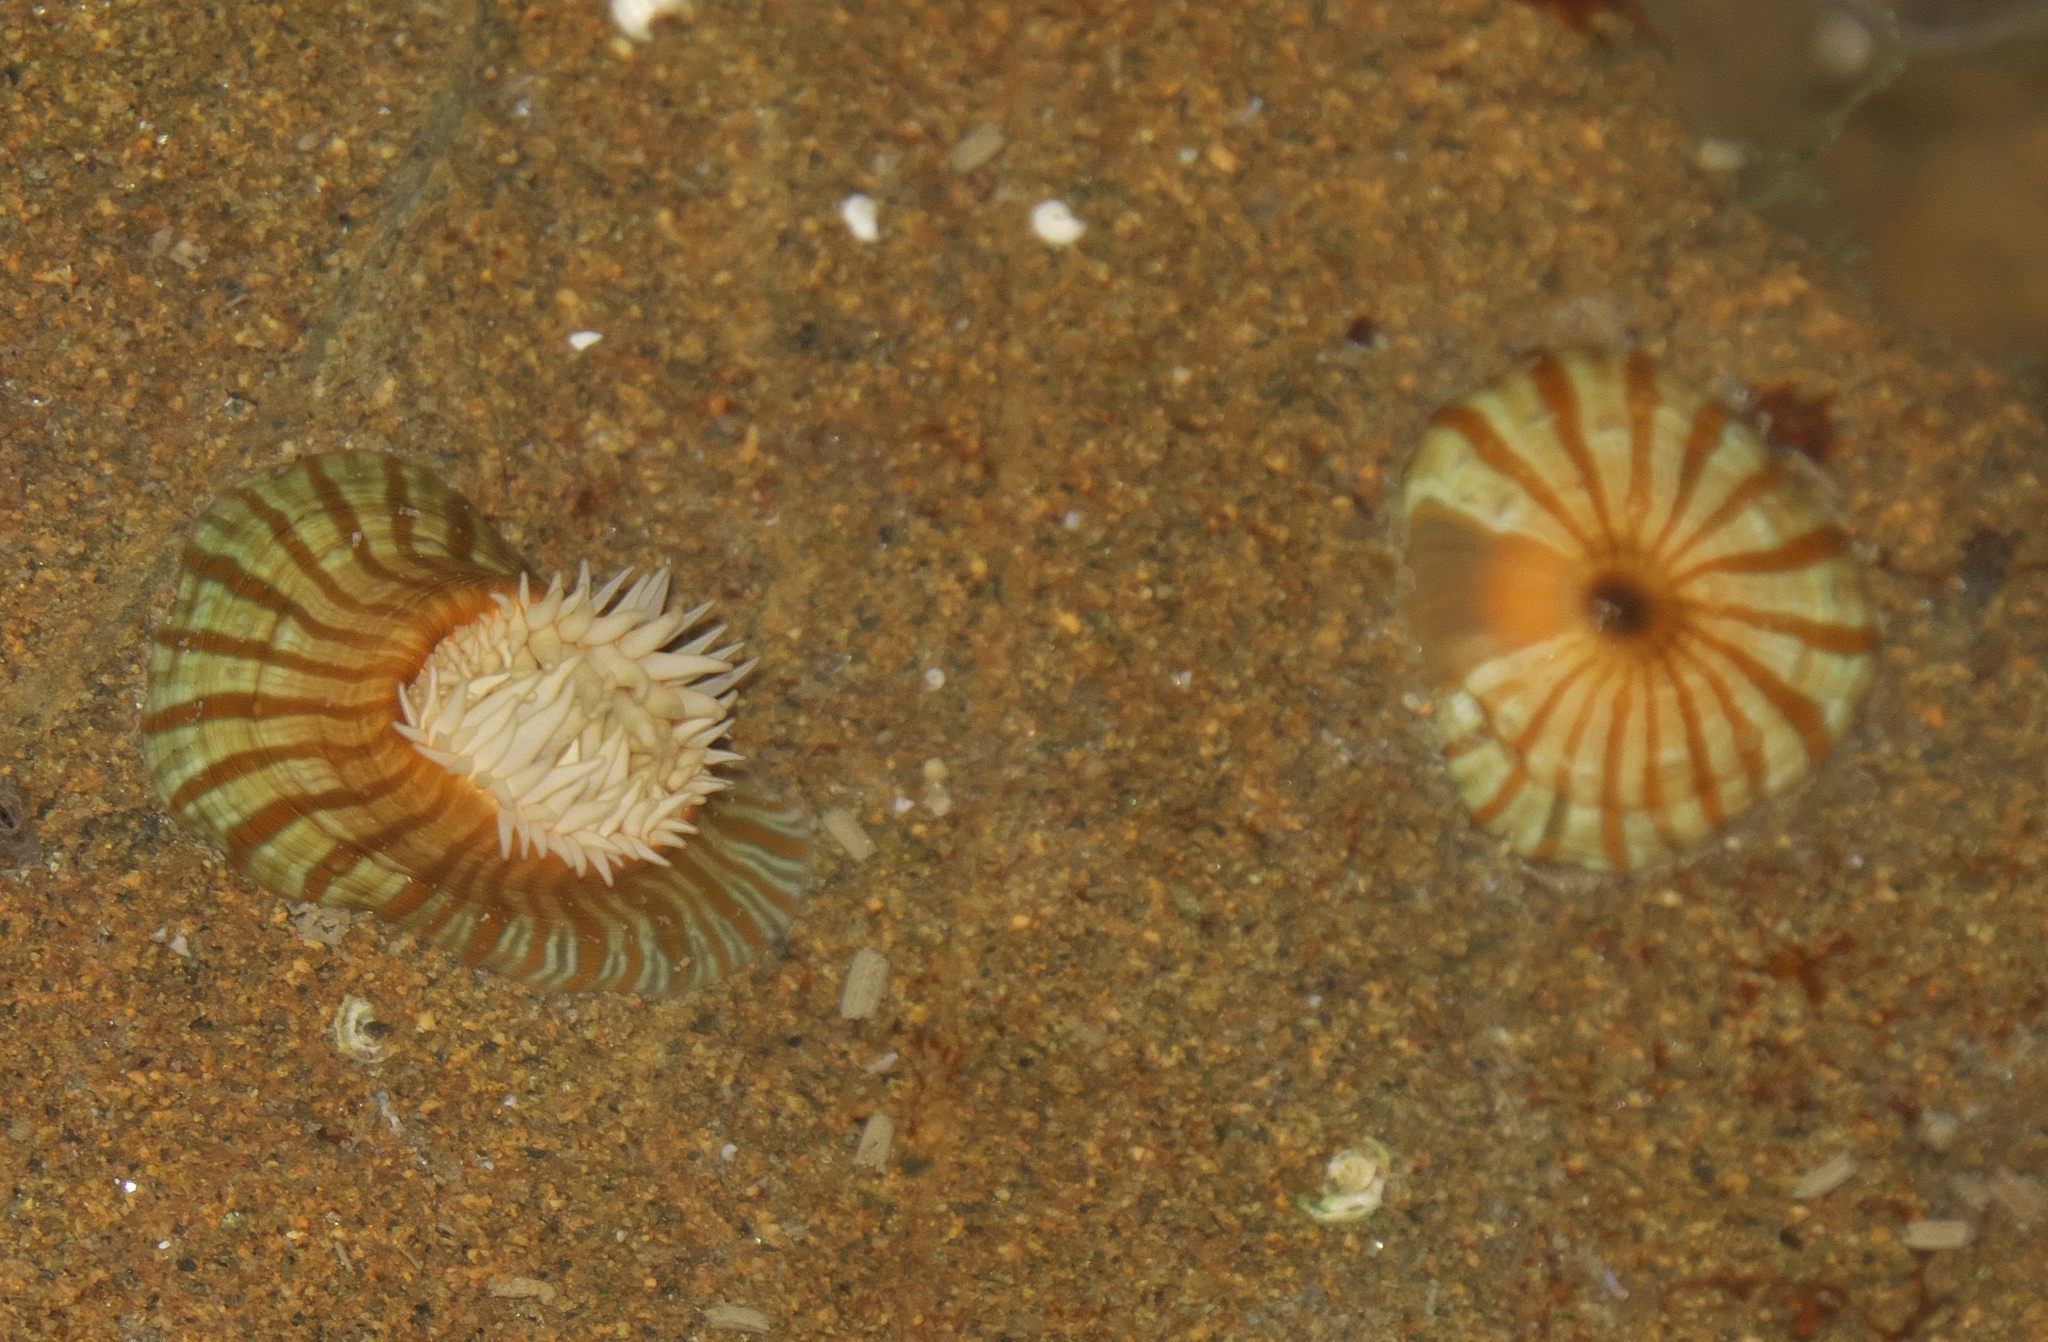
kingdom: Animalia
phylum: Cnidaria
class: Anthozoa
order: Actiniaria
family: Sagartiidae
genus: Anthothoe
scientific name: Anthothoe albocincta
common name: Orange striped anemone
